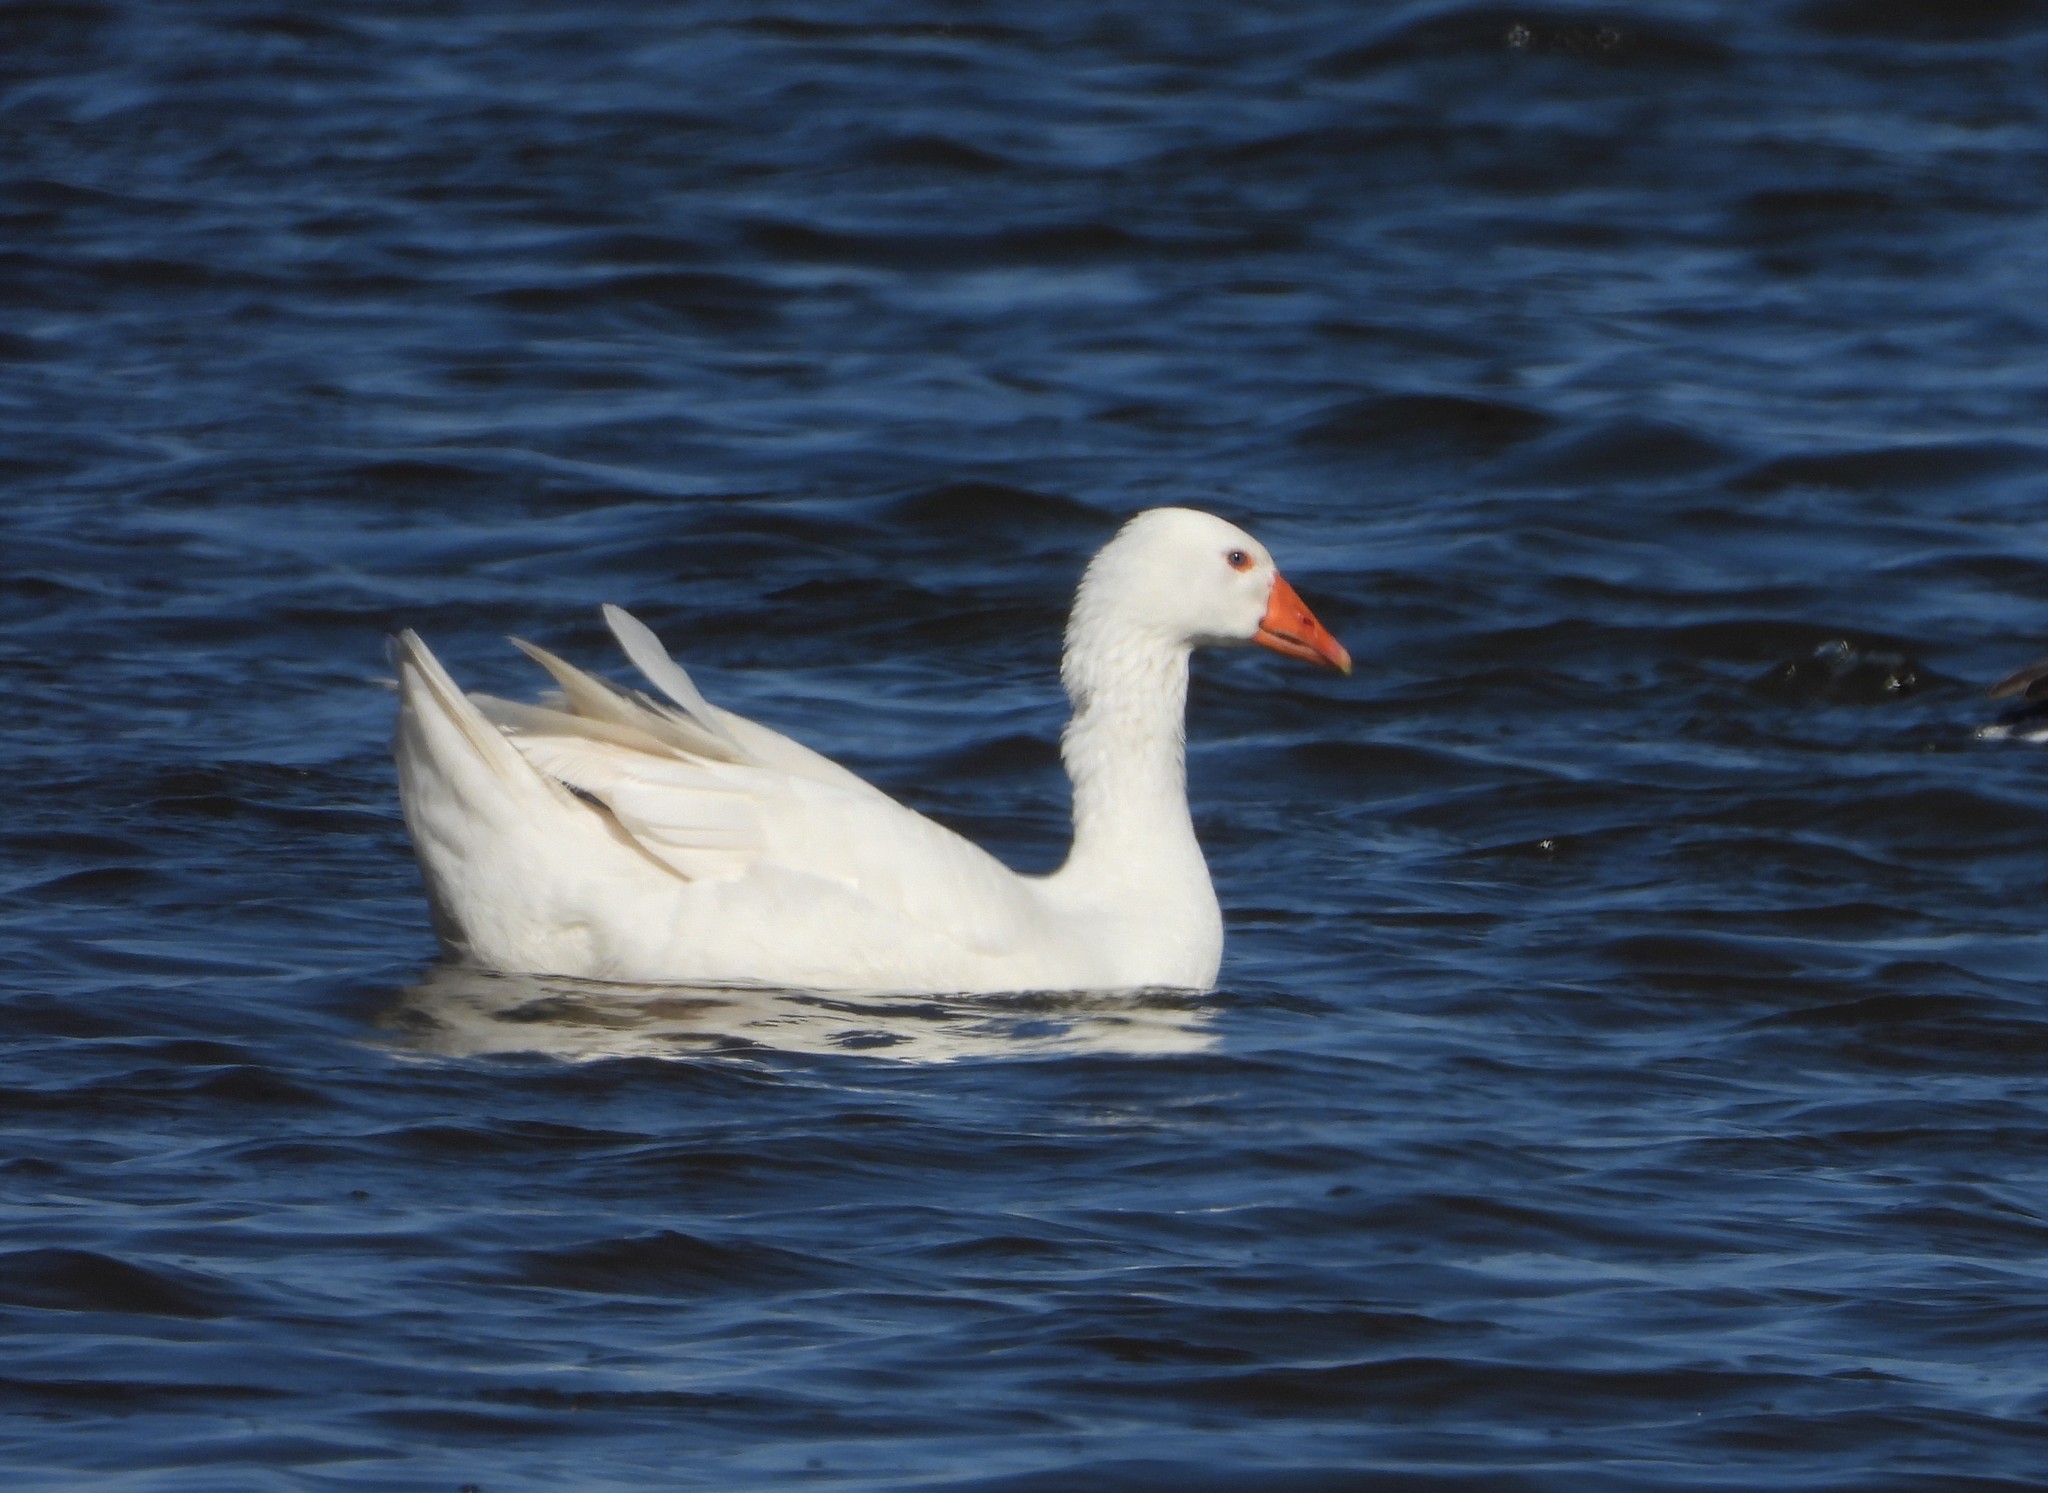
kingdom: Animalia
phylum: Chordata
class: Aves
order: Anseriformes
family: Anatidae
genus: Anser
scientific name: Anser anser
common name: Greylag goose
